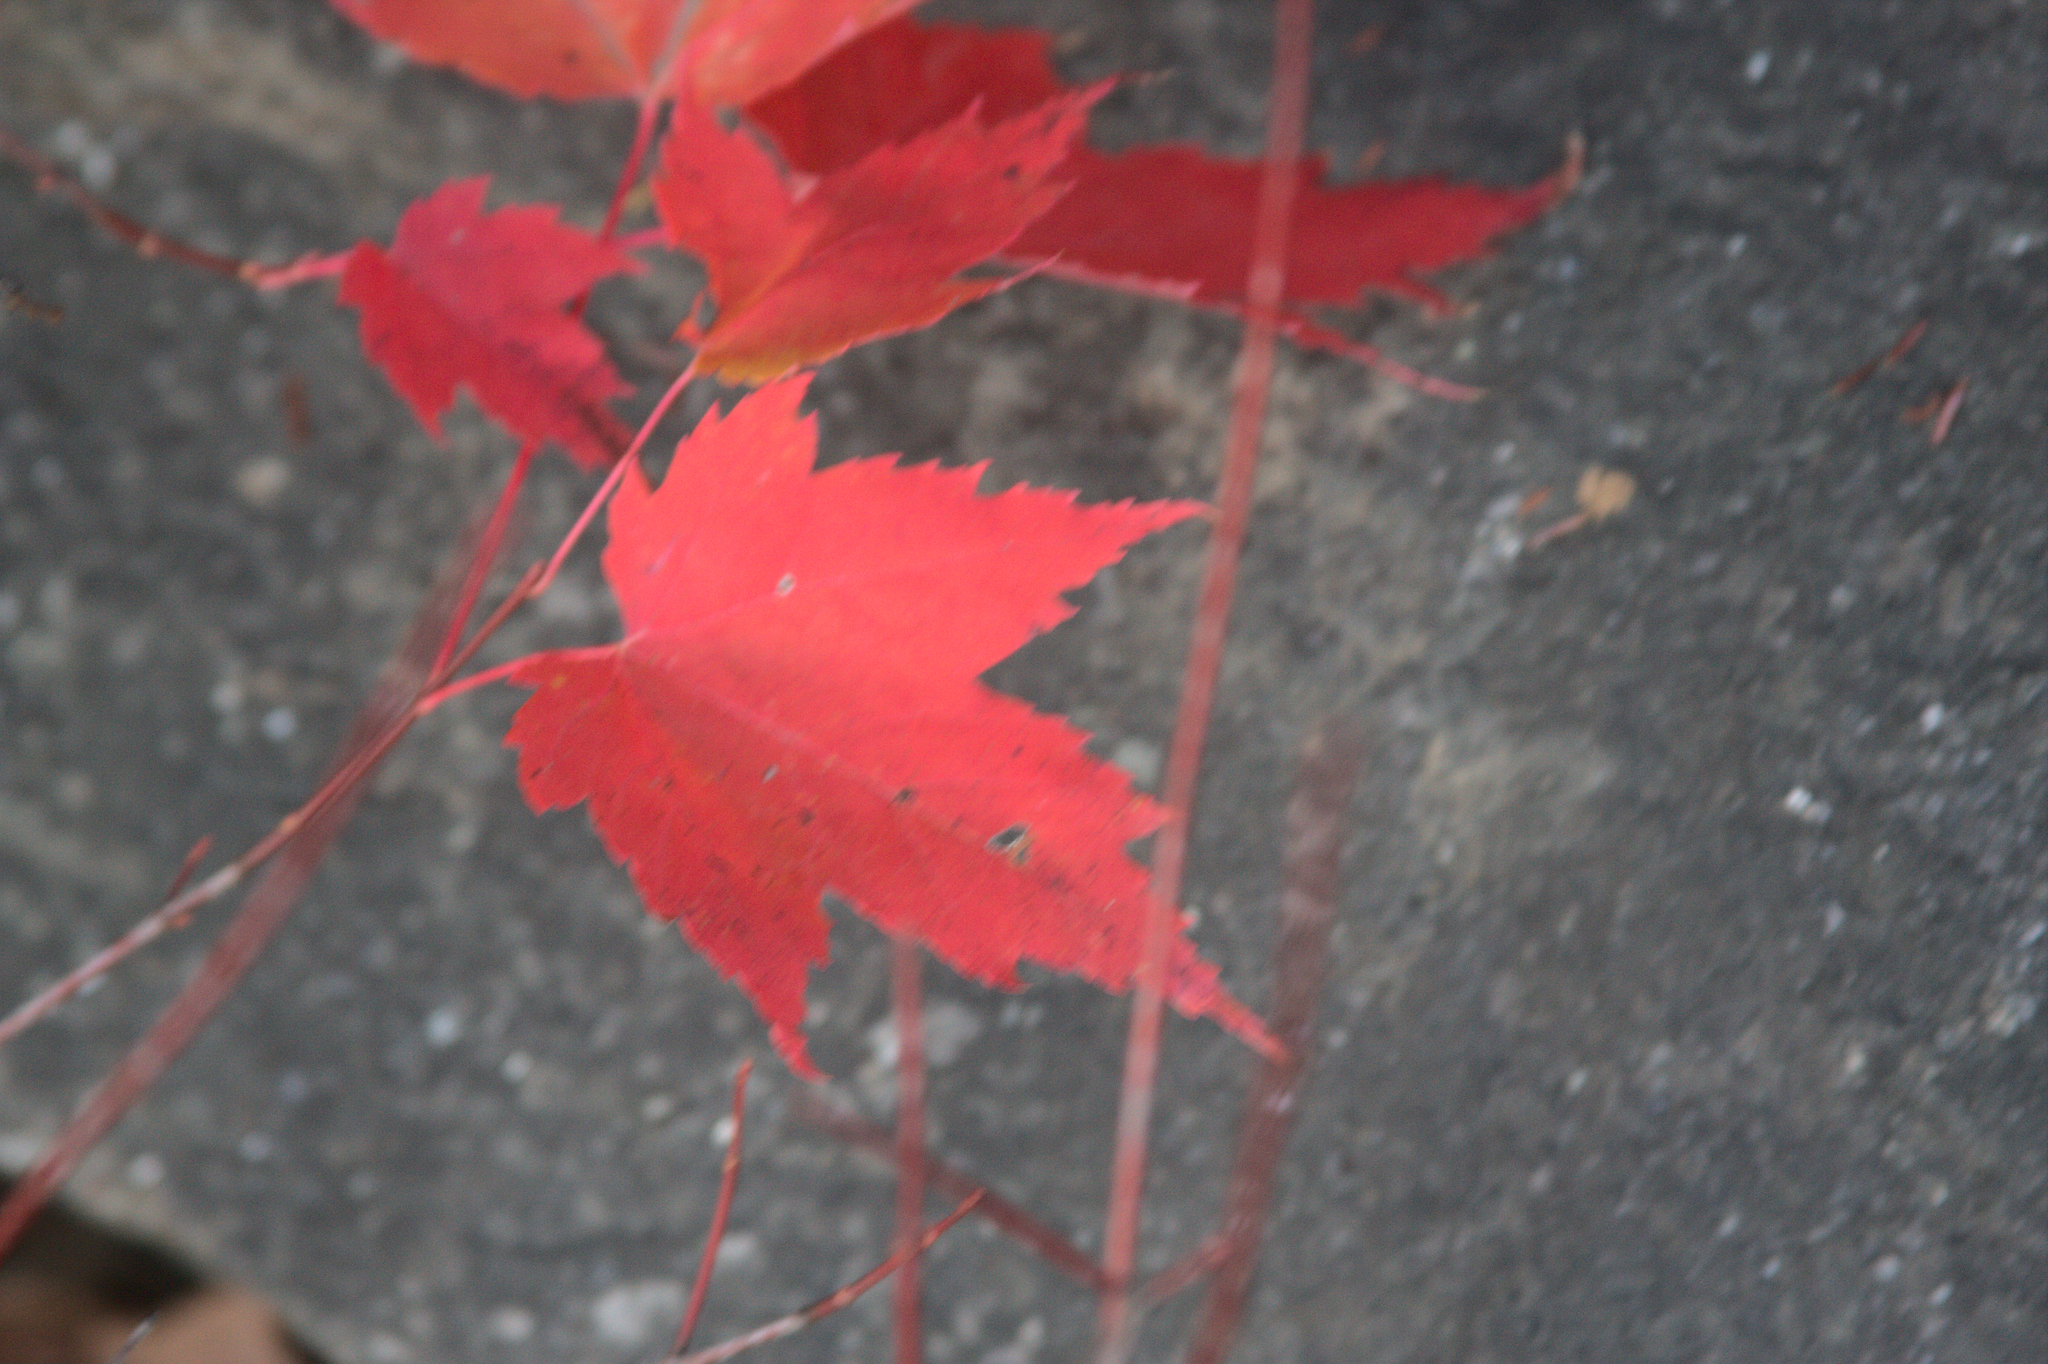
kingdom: Plantae
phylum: Tracheophyta
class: Magnoliopsida
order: Sapindales
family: Sapindaceae
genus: Acer
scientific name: Acer rubrum
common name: Red maple
